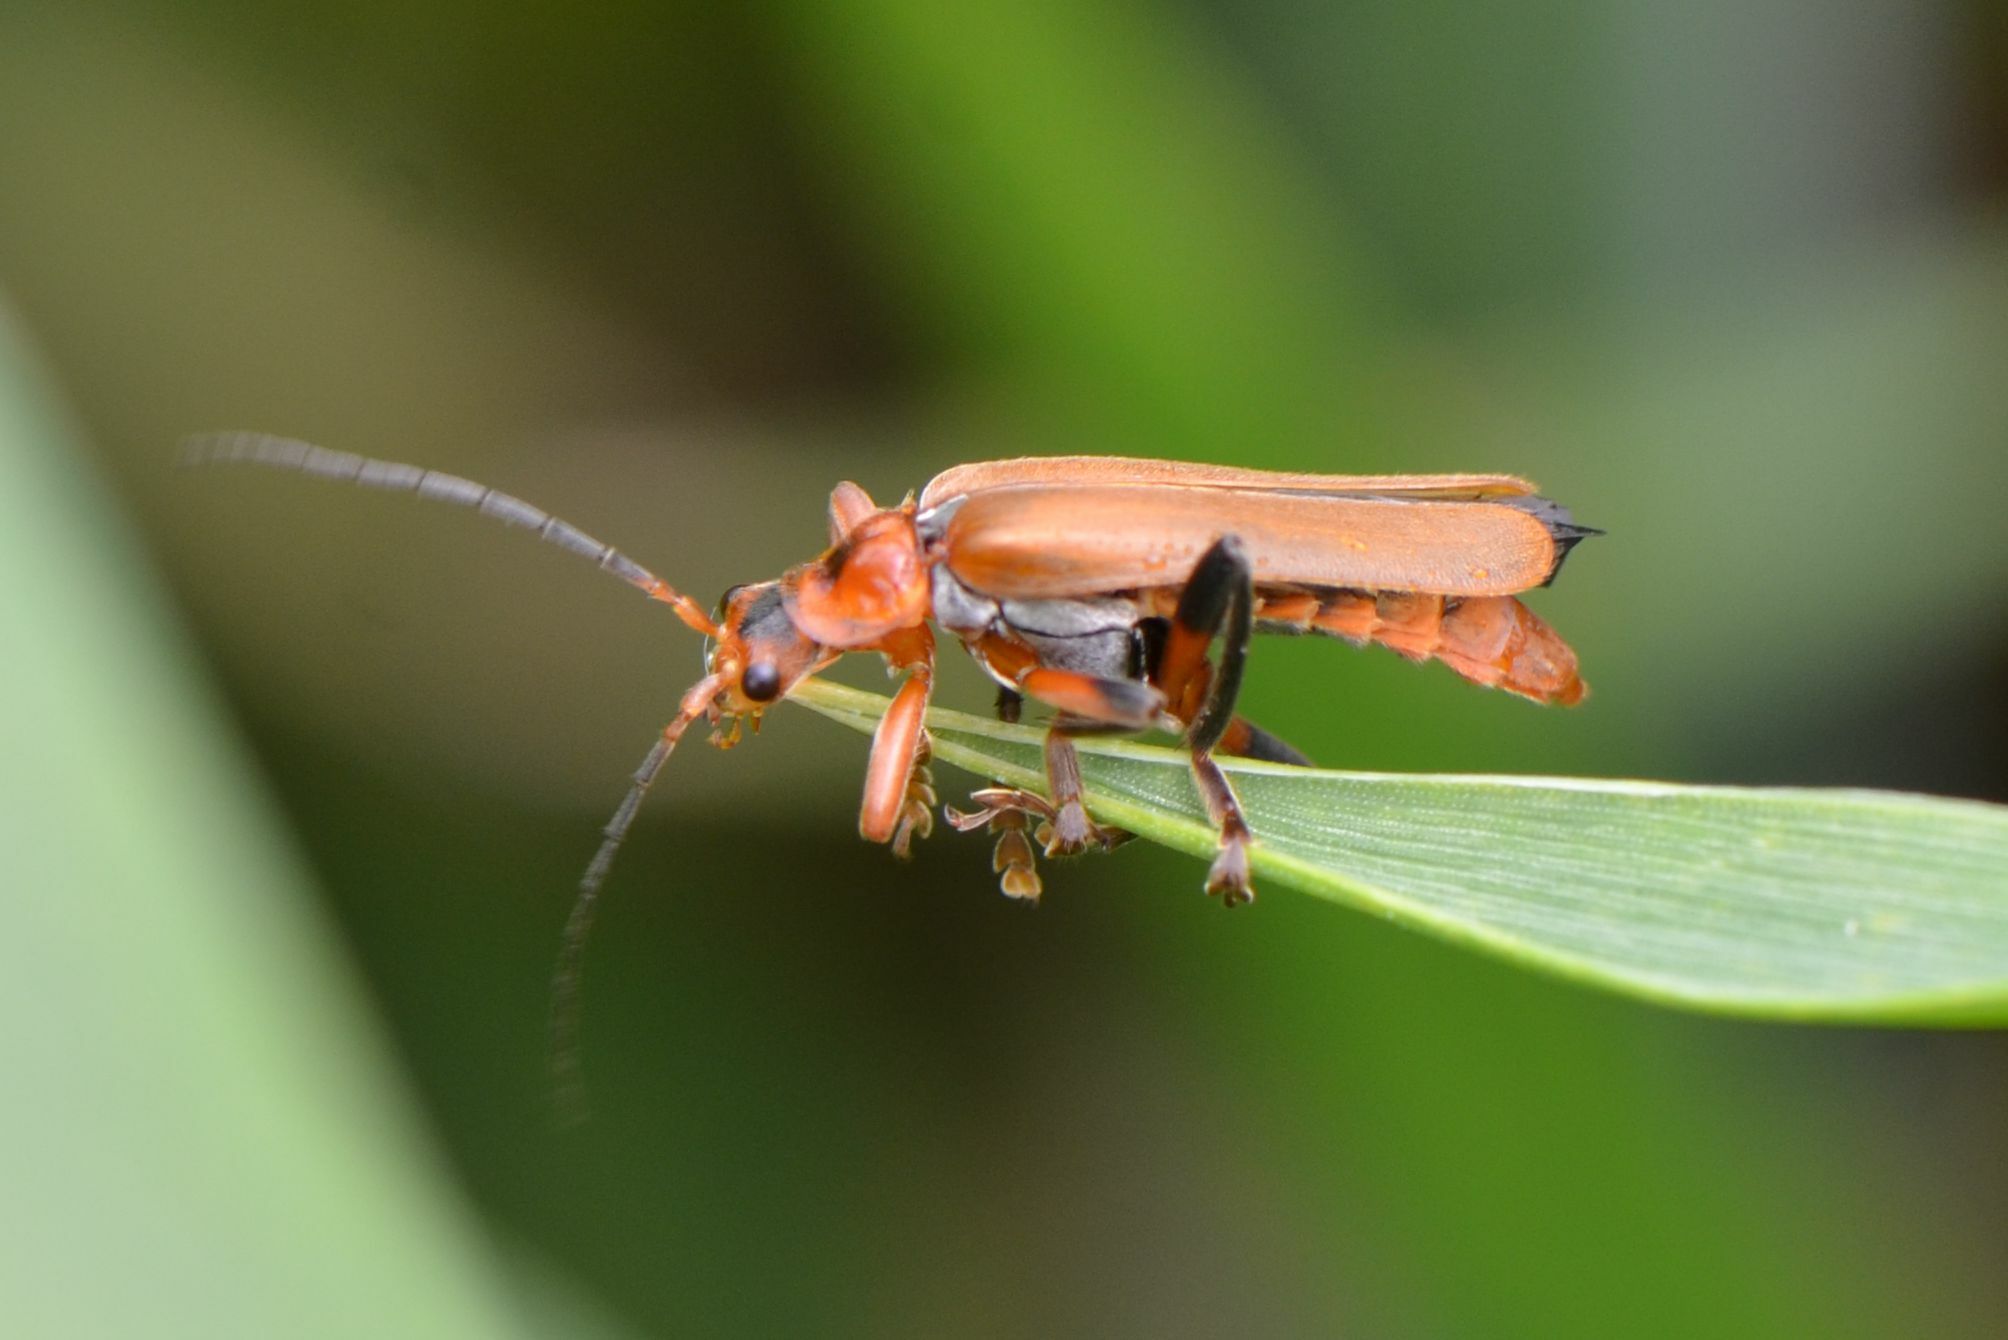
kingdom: Animalia
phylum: Arthropoda
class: Insecta
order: Coleoptera
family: Cantharidae
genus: Cantharis
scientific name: Cantharis livida
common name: Livid soldier beetle
